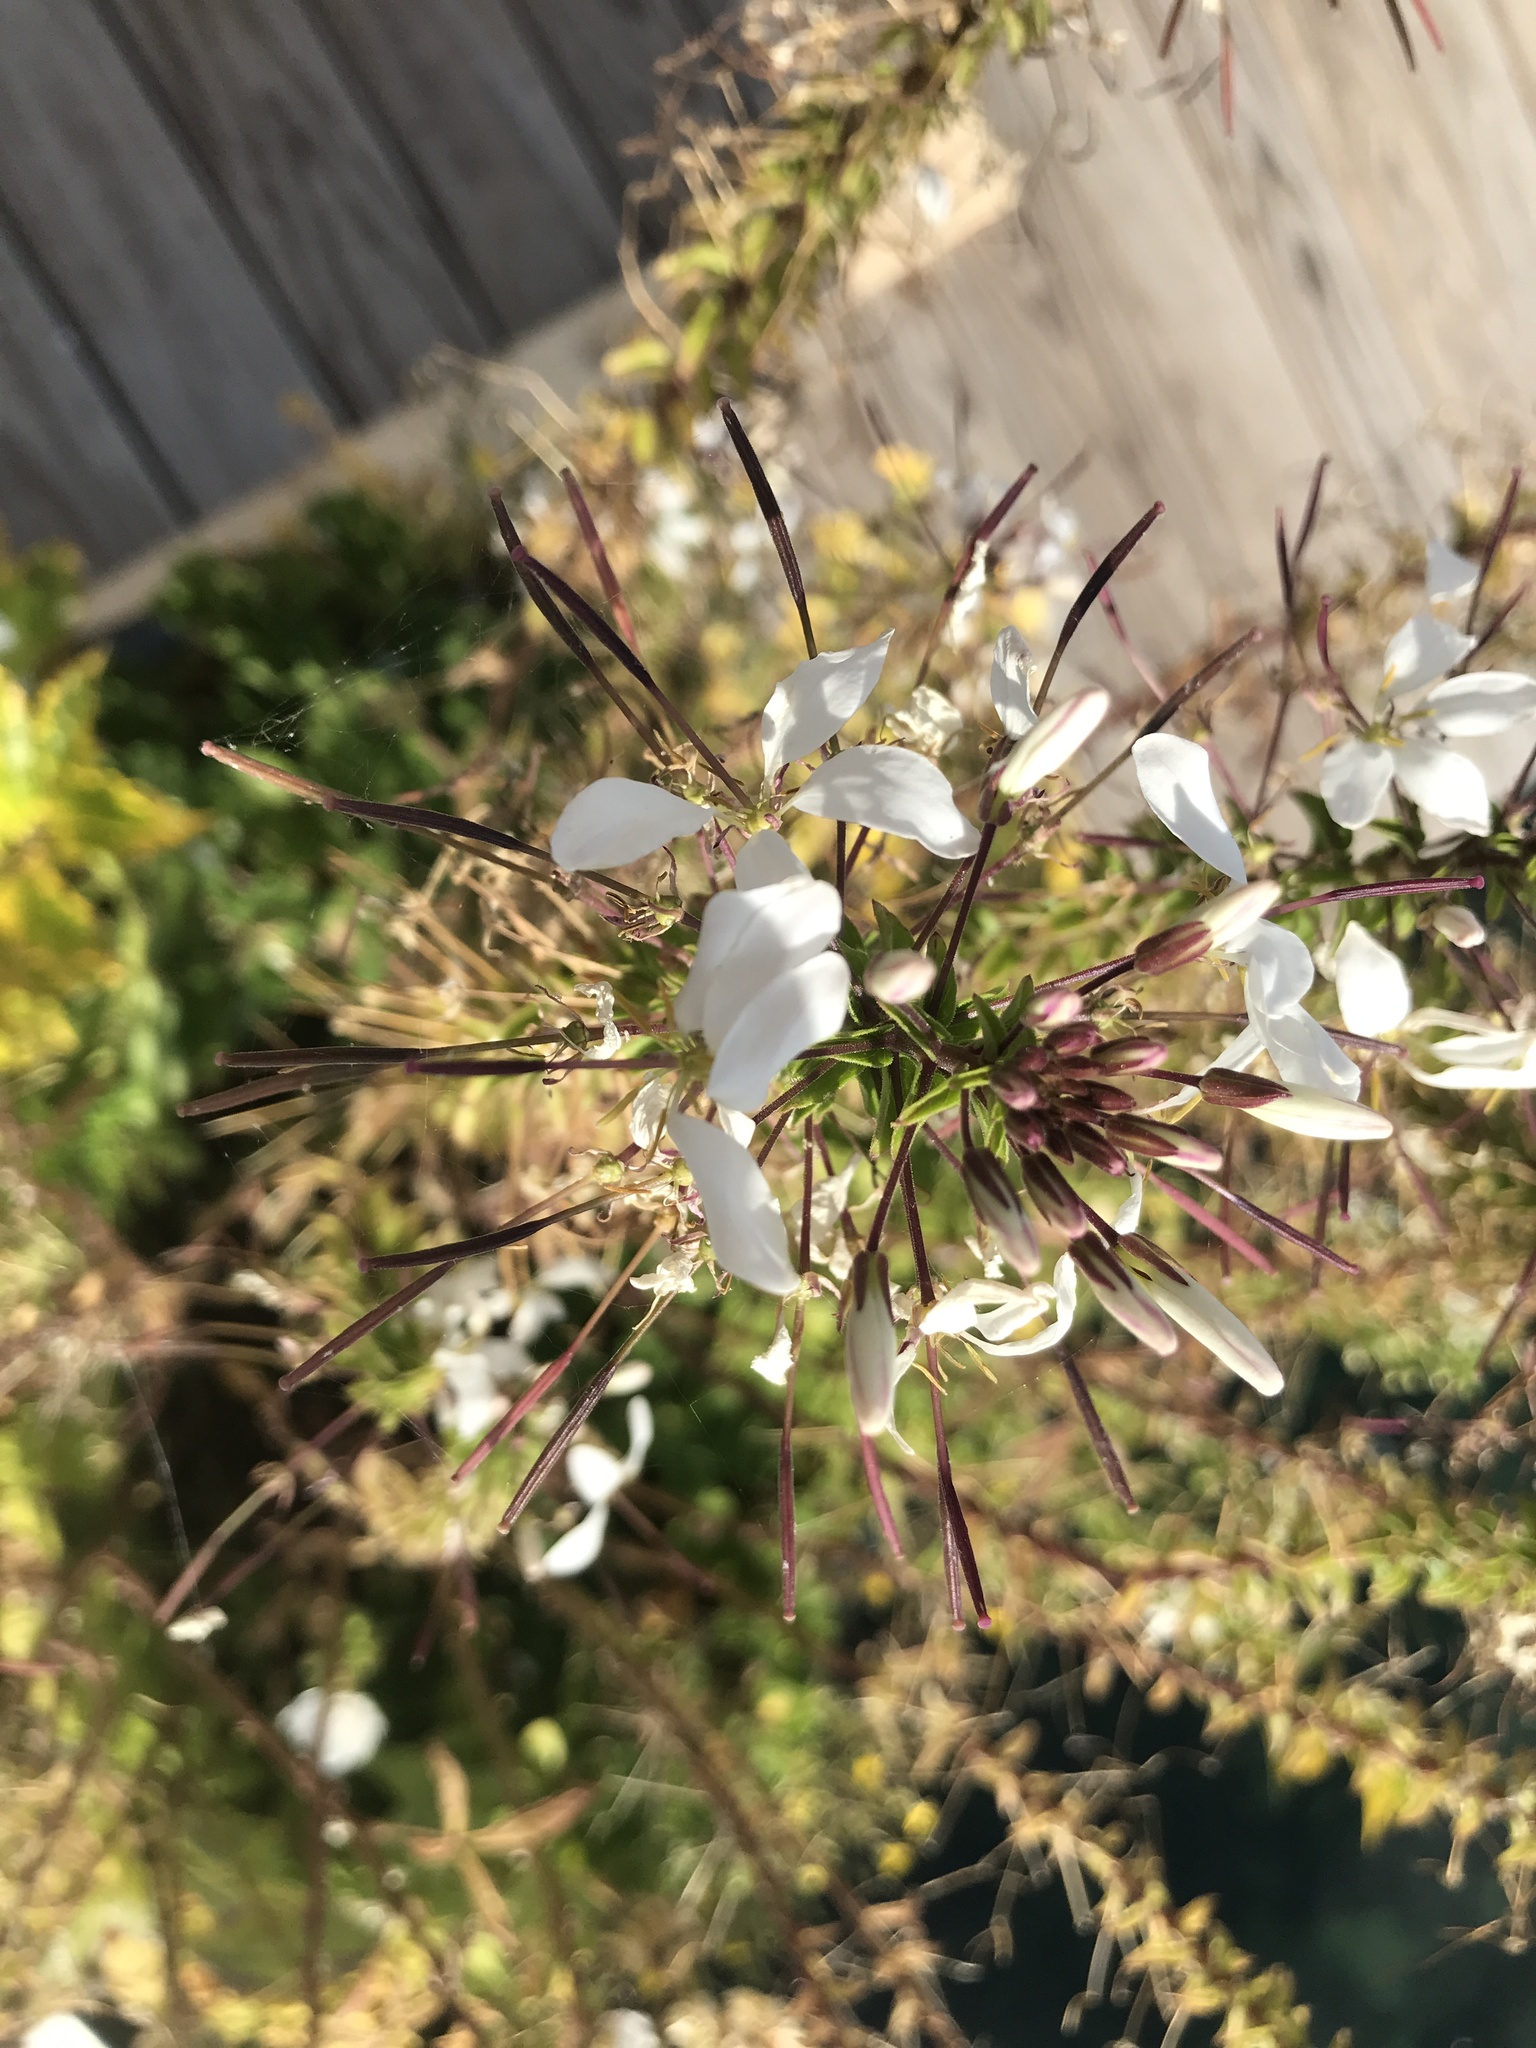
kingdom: Plantae
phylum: Tracheophyta
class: Magnoliopsida
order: Brassicales
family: Cleomaceae
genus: Tarenaya
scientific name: Tarenaya houtteana
